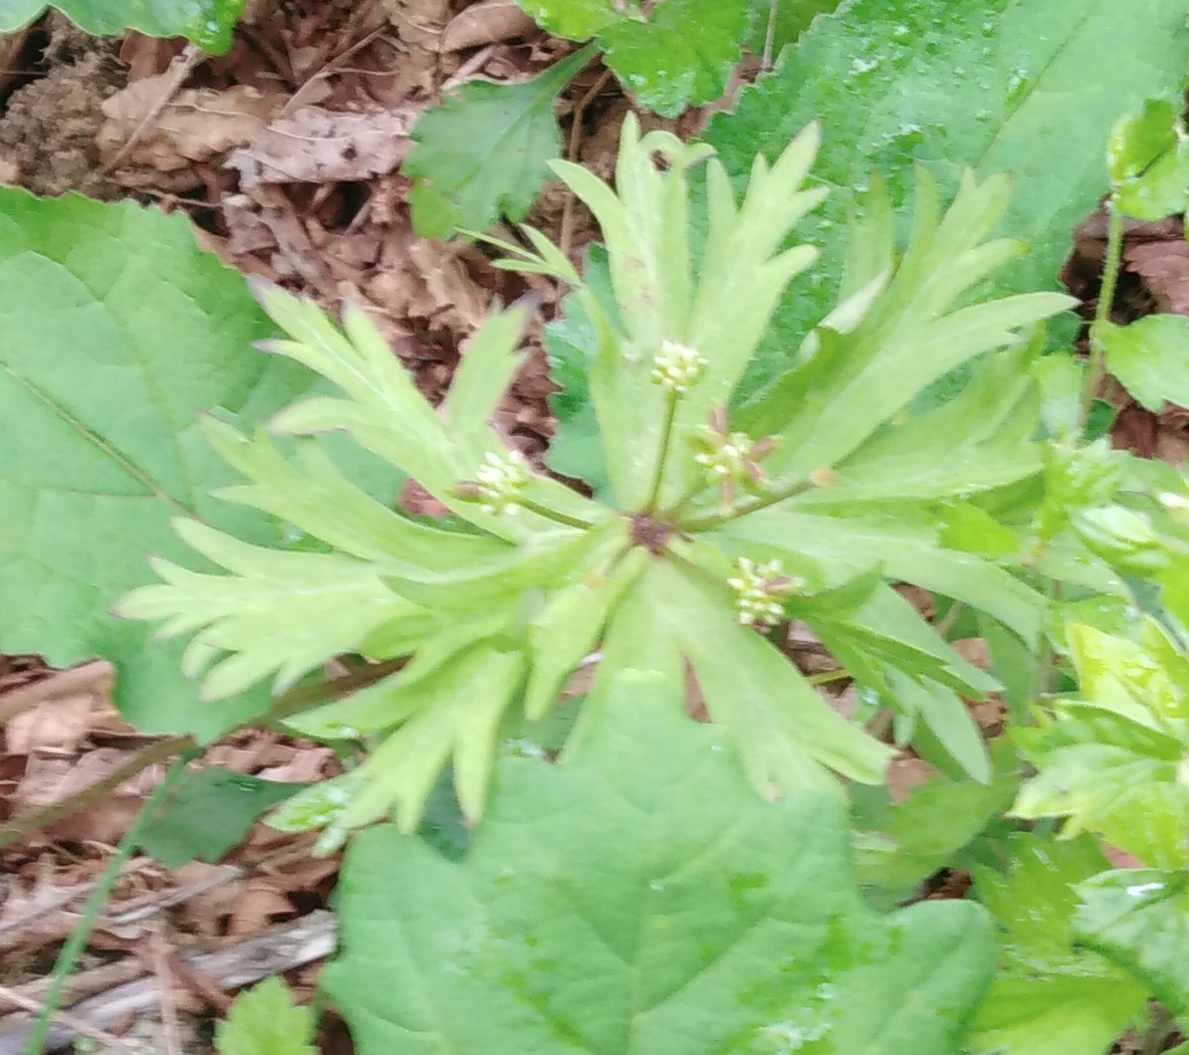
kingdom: Plantae
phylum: Tracheophyta
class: Magnoliopsida
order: Ranunculales
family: Ranunculaceae
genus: Anemonastrum
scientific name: Anemonastrum narcissiflorum
